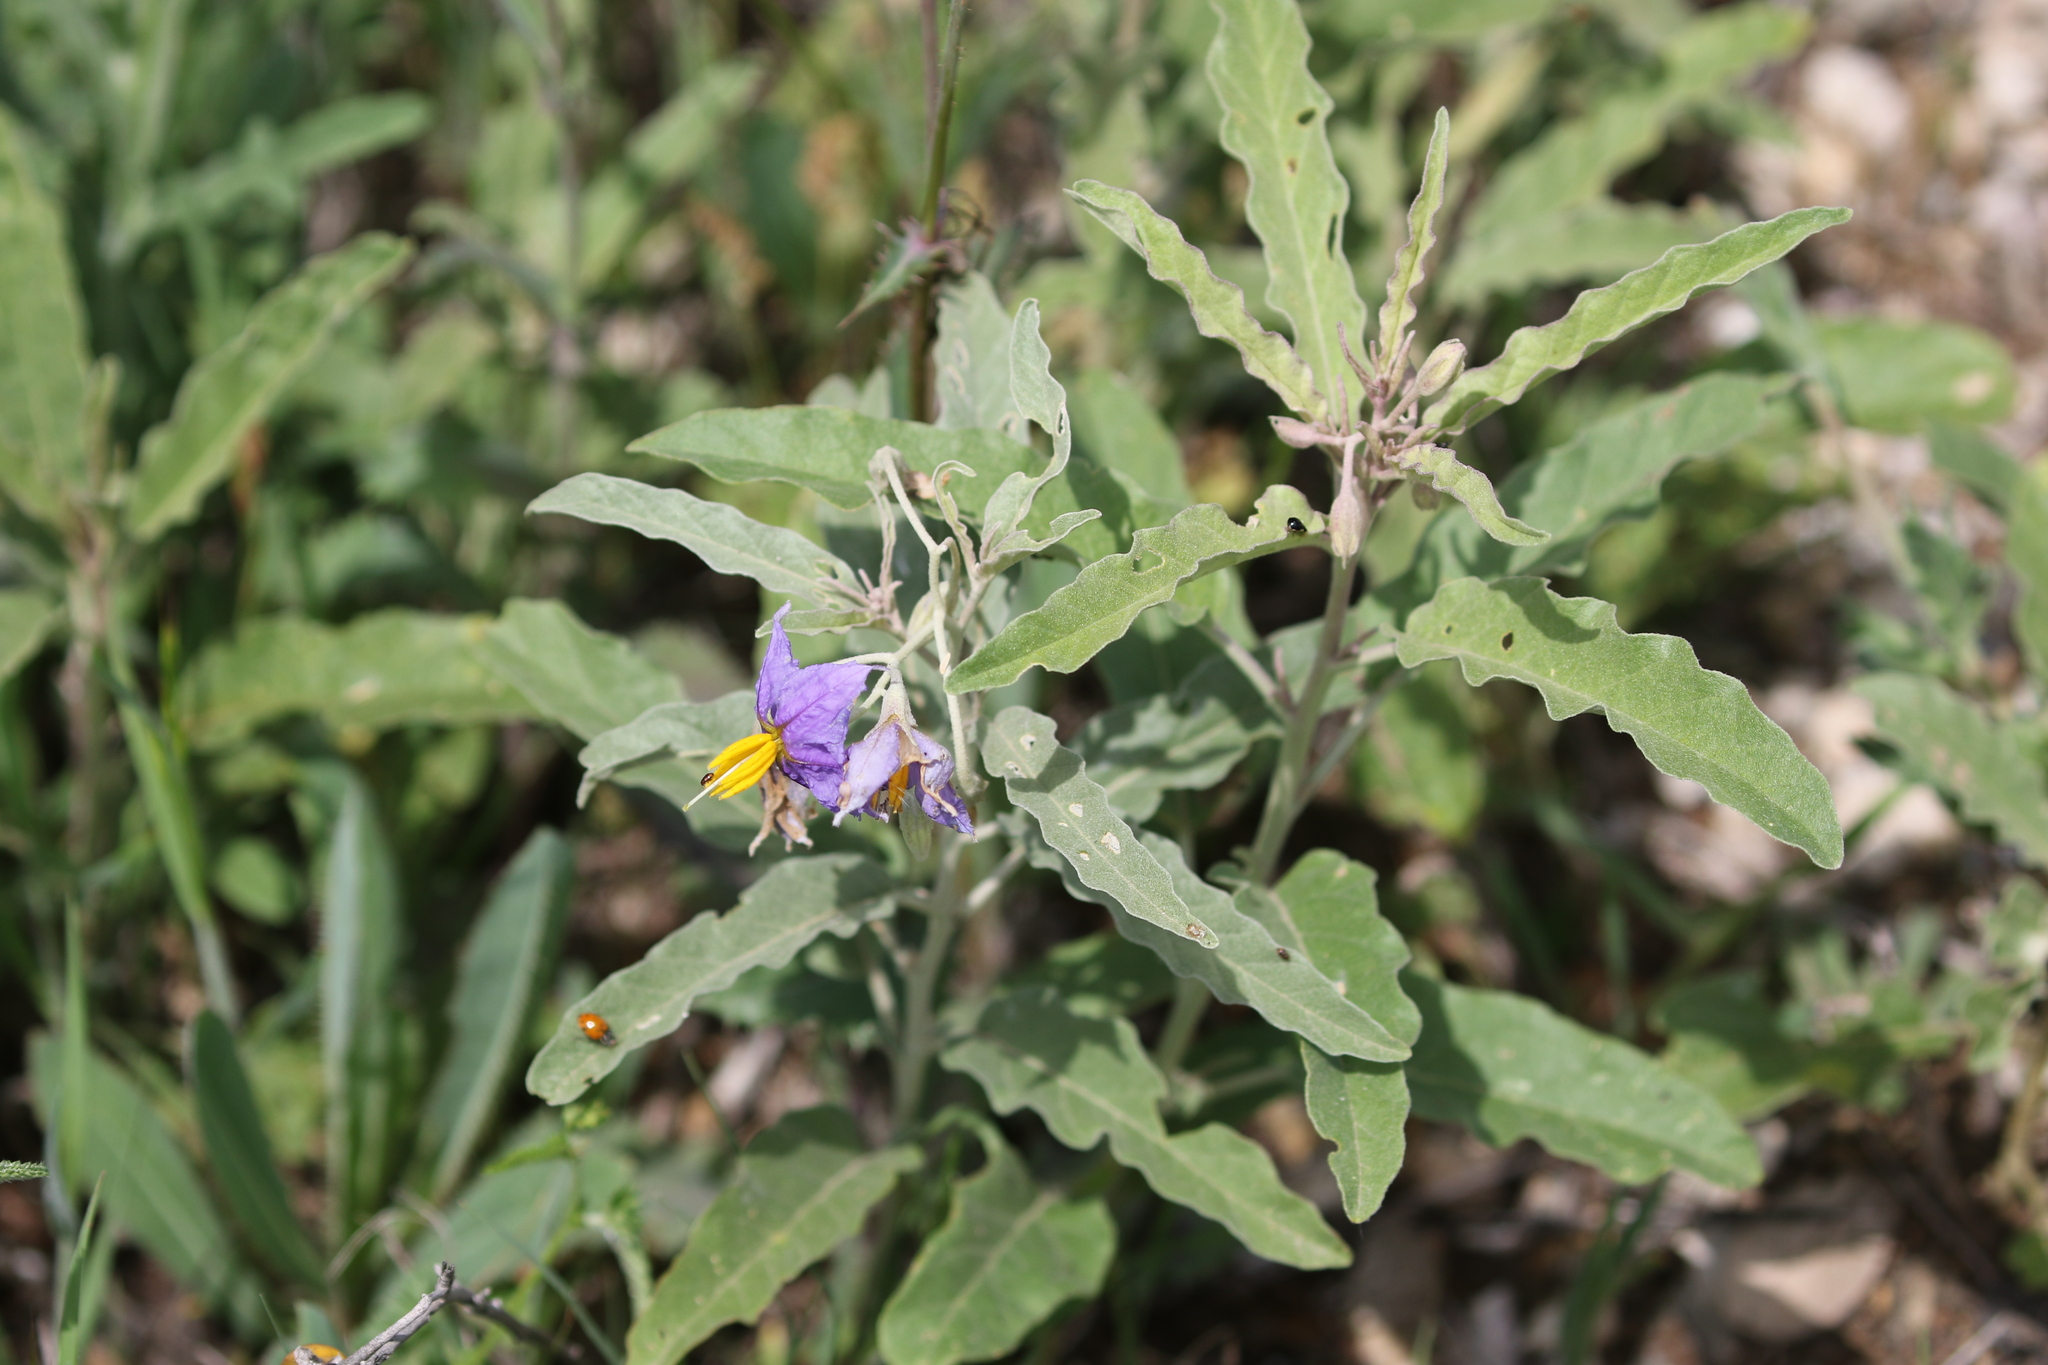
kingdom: Plantae
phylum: Tracheophyta
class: Magnoliopsida
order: Solanales
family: Solanaceae
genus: Solanum
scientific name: Solanum elaeagnifolium
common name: Silverleaf nightshade
